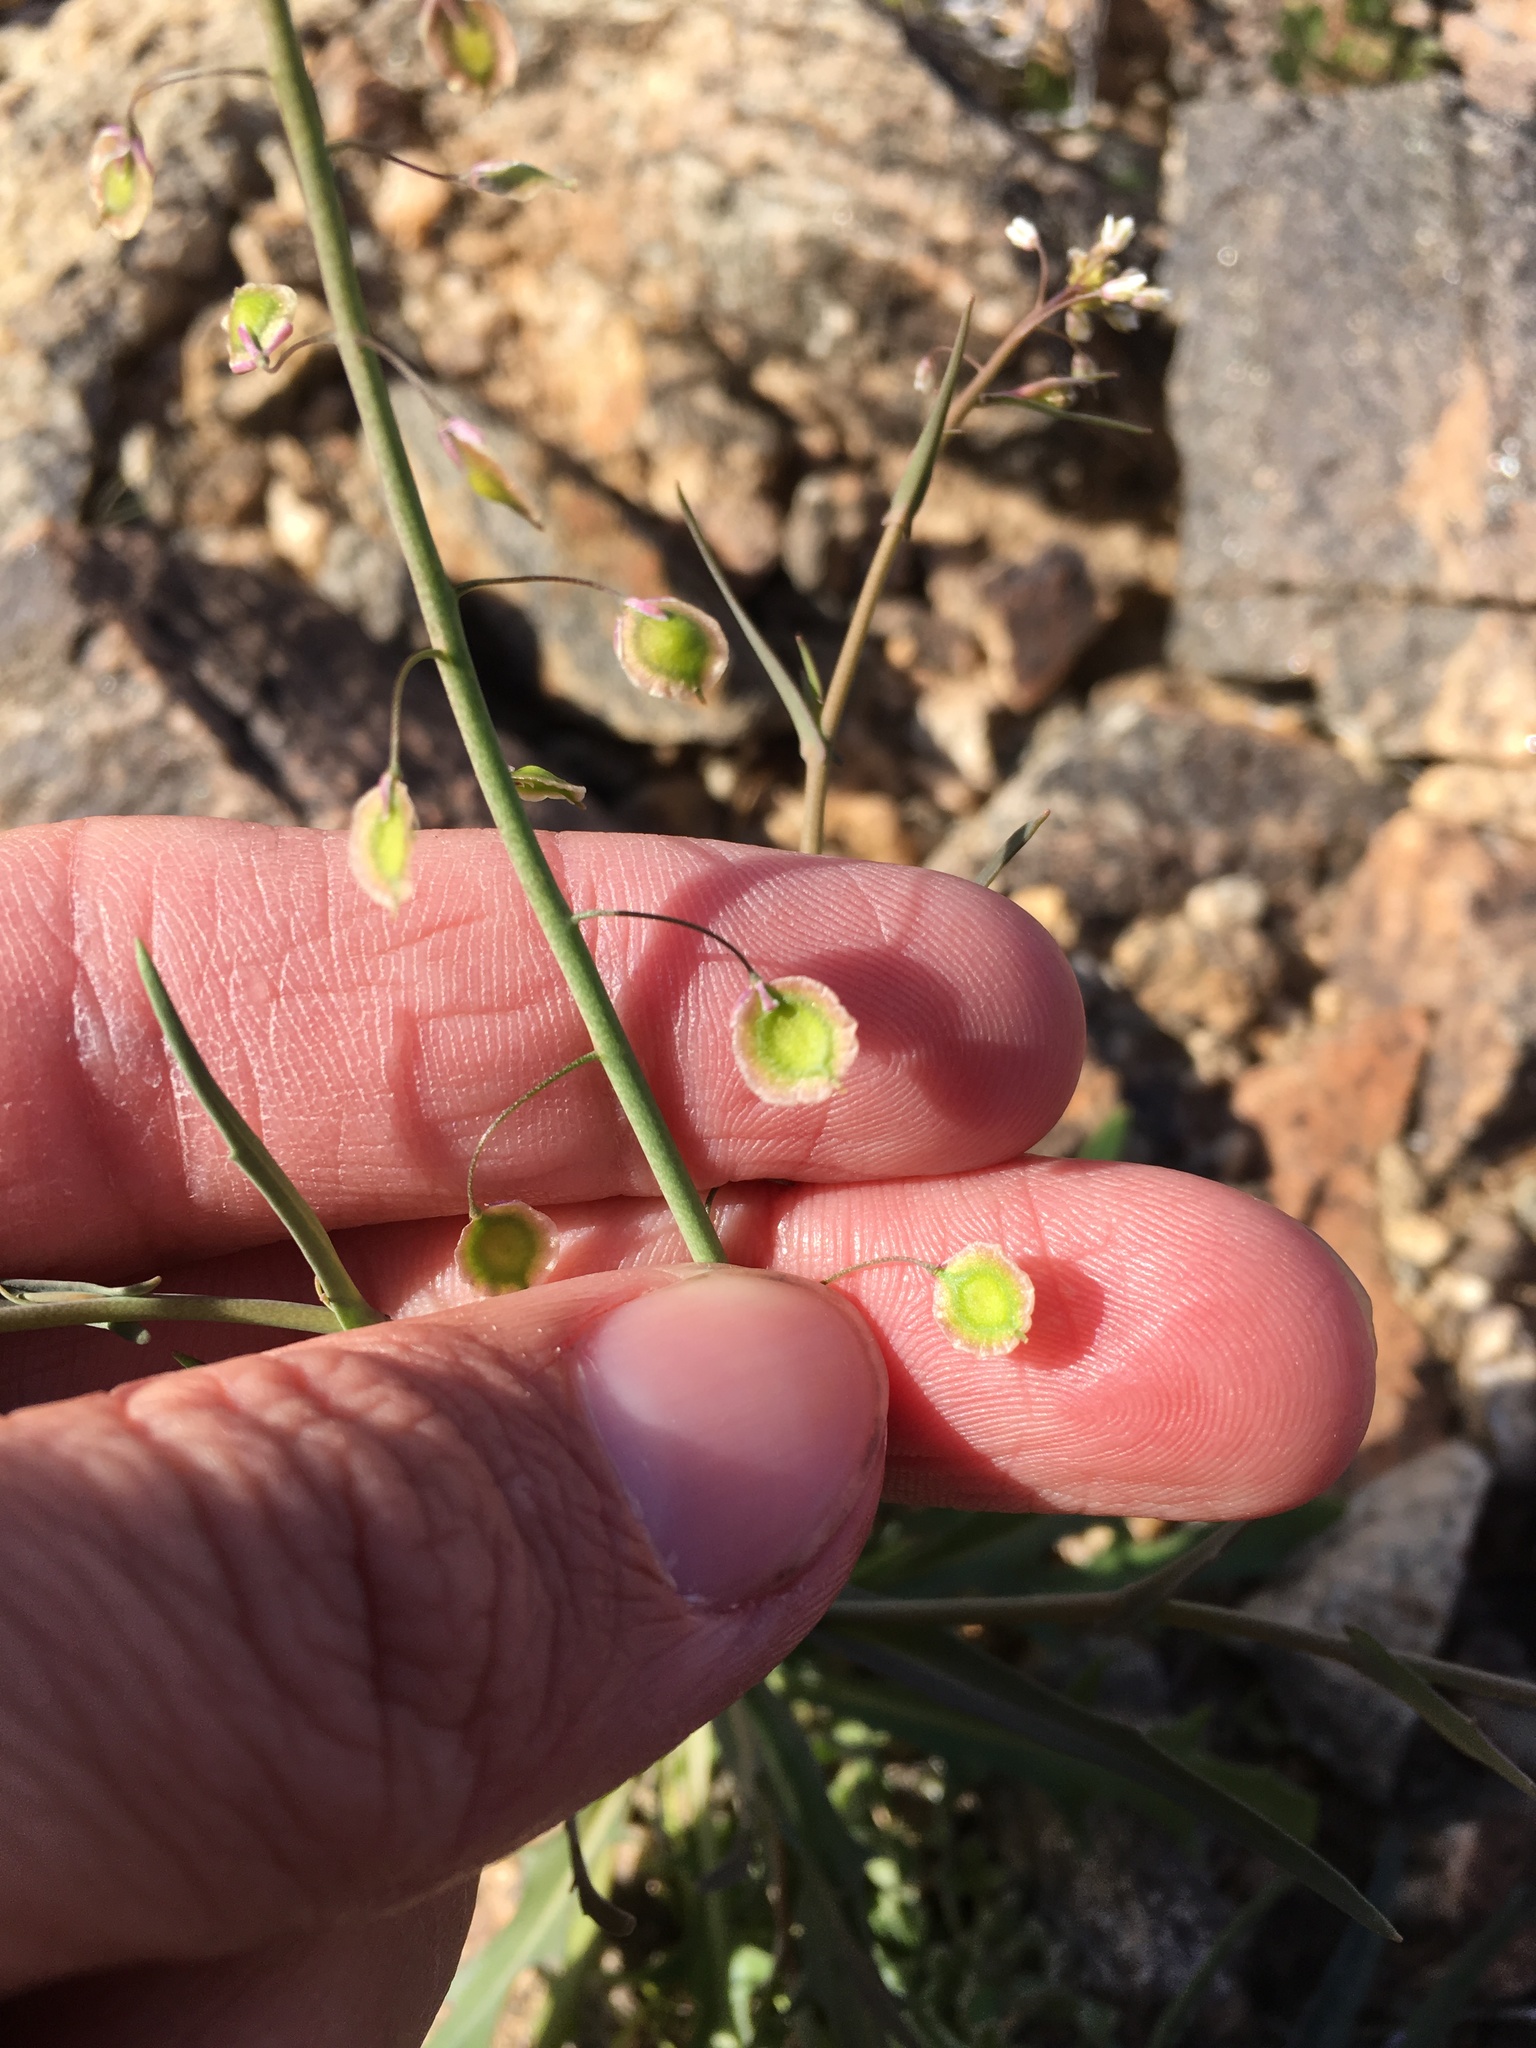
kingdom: Plantae
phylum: Tracheophyta
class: Magnoliopsida
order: Brassicales
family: Brassicaceae
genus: Thysanocarpus
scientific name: Thysanocarpus curvipes
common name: Sand fringepod
